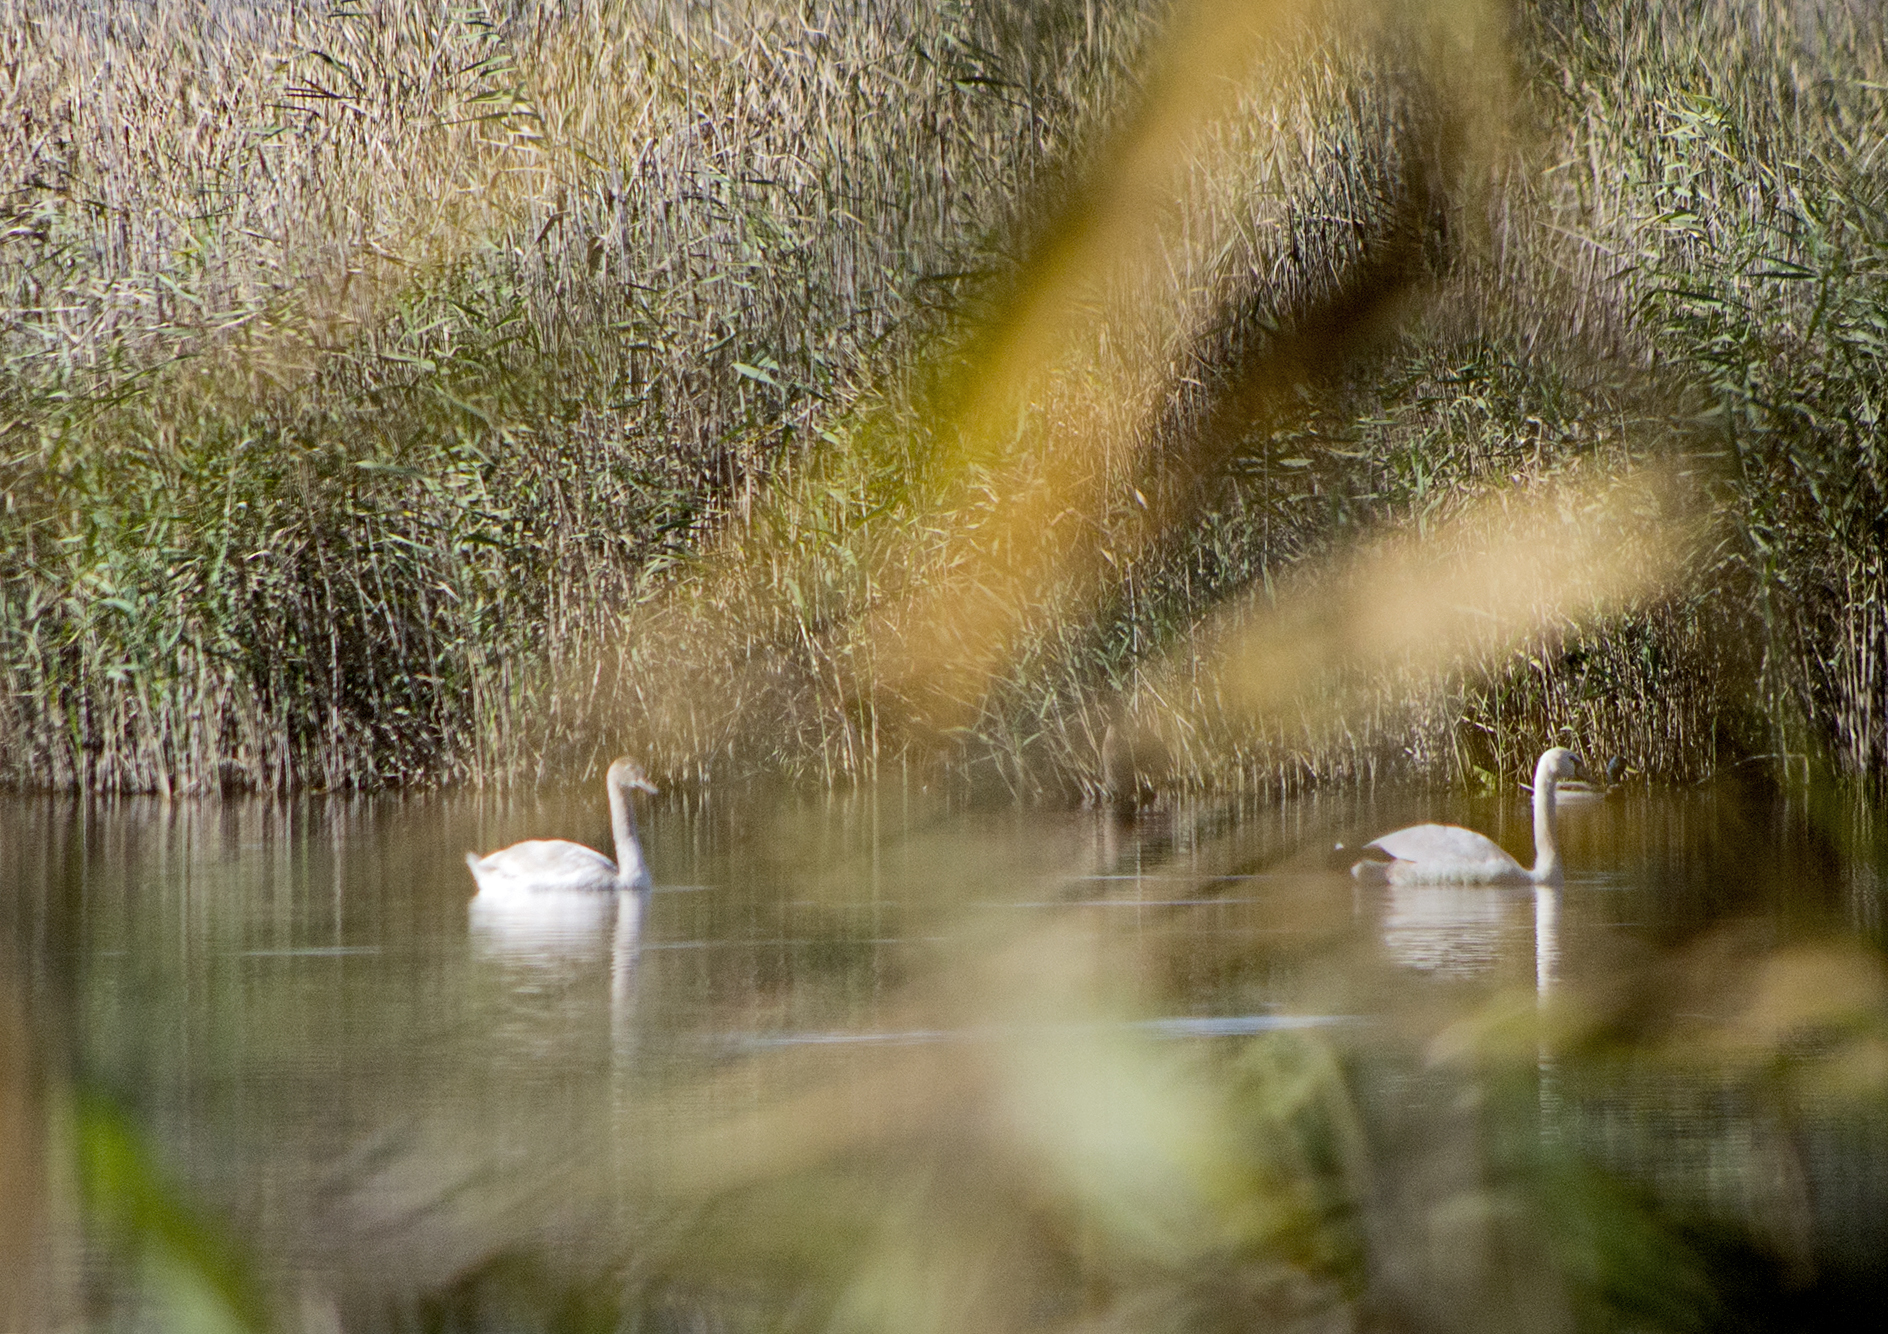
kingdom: Animalia
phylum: Chordata
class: Aves
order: Anseriformes
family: Anatidae
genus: Cygnus
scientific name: Cygnus olor
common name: Mute swan
